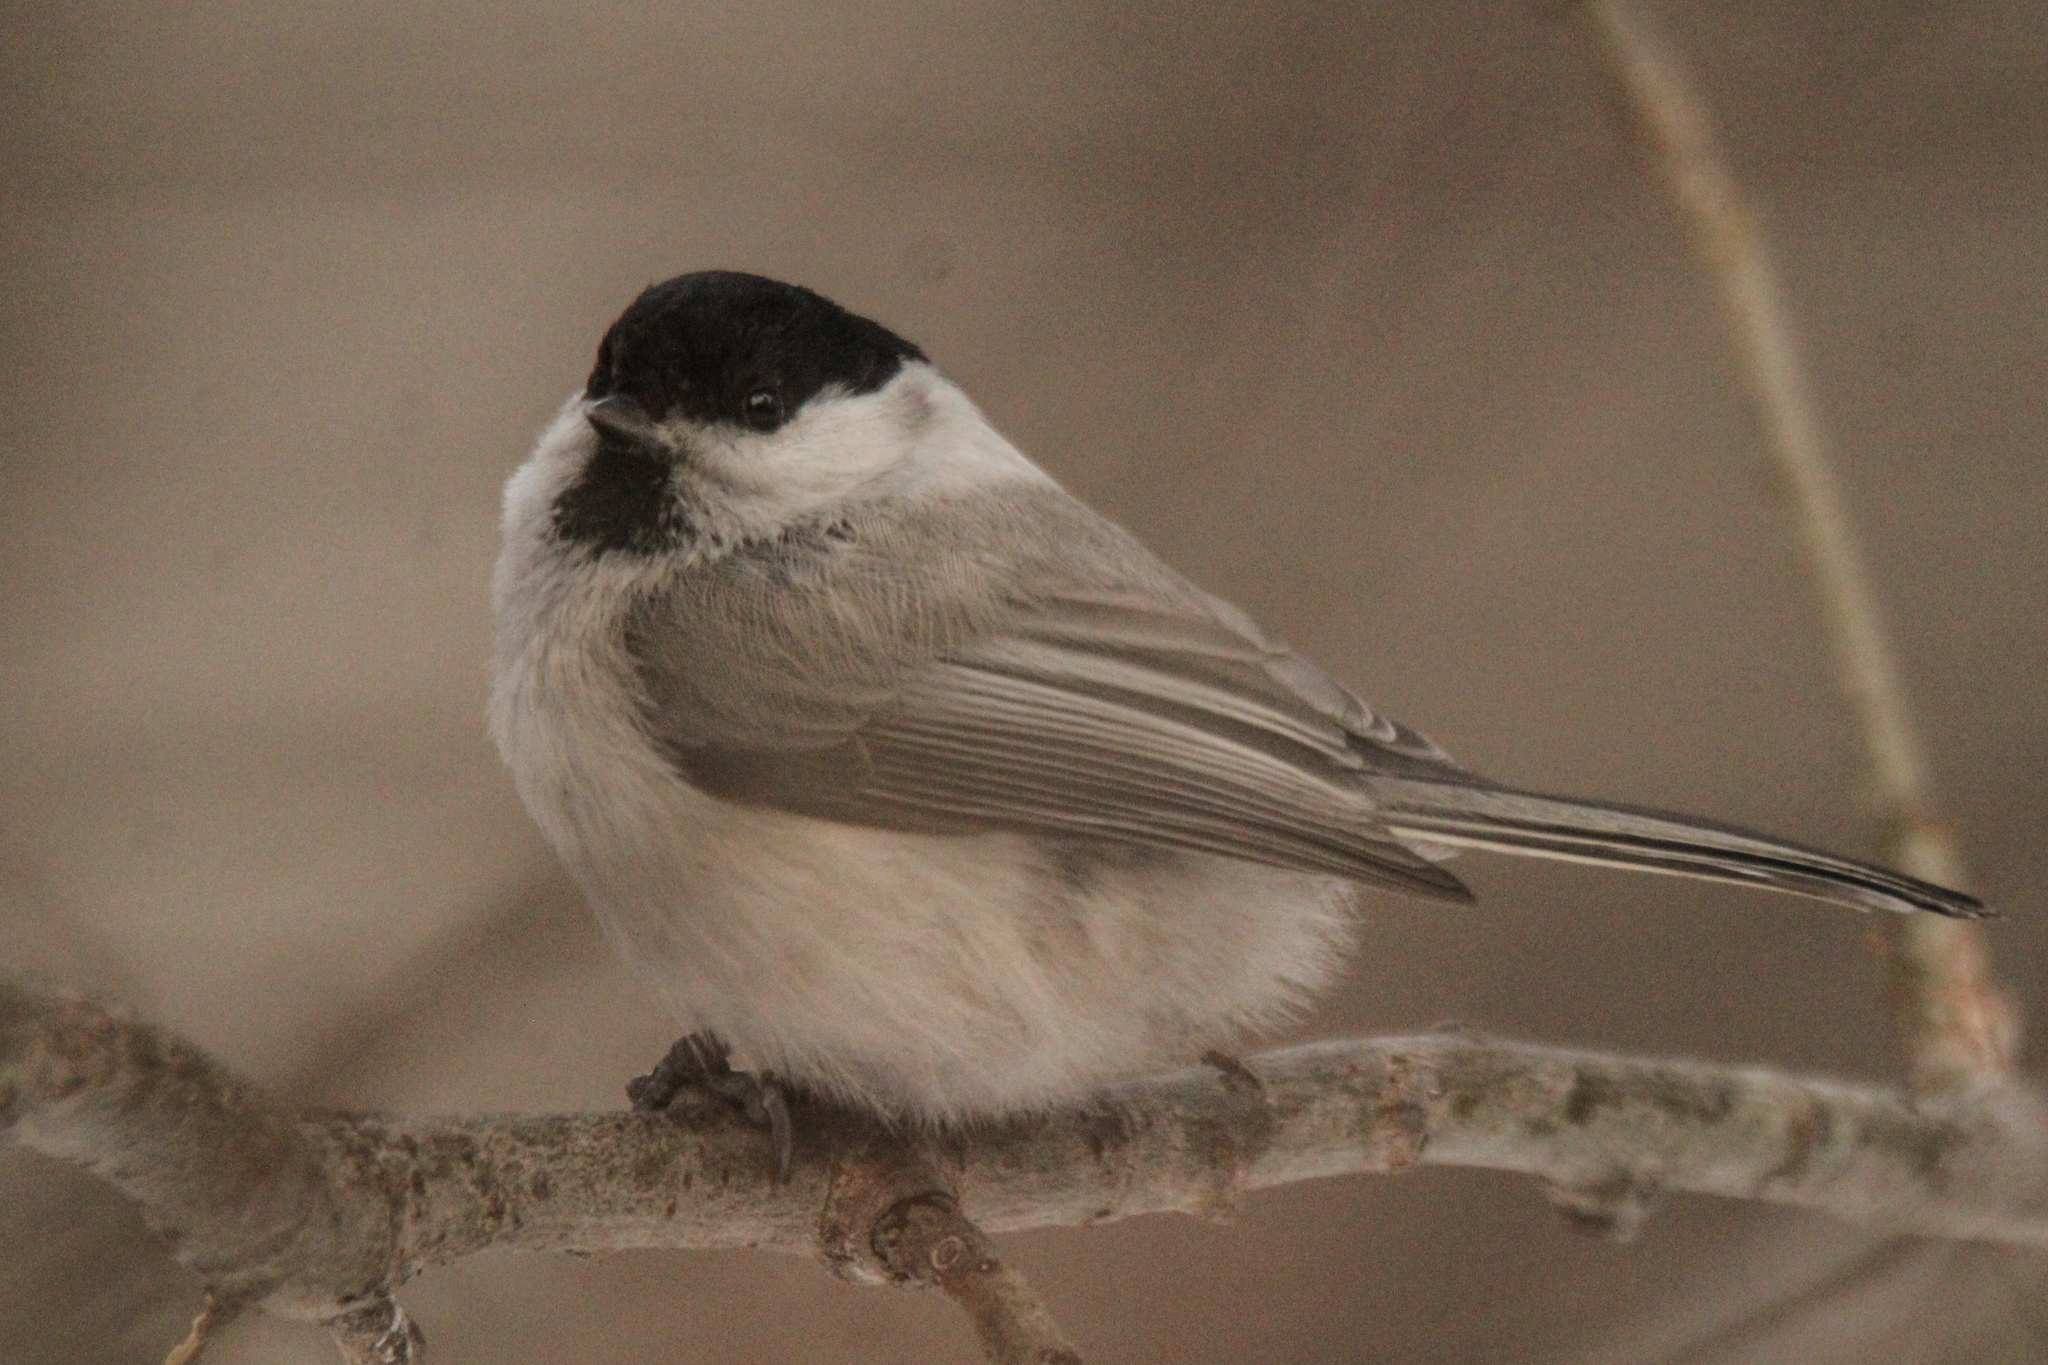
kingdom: Animalia
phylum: Chordata
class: Aves
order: Passeriformes
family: Paridae
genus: Poecile
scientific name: Poecile montanus
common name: Willow tit
